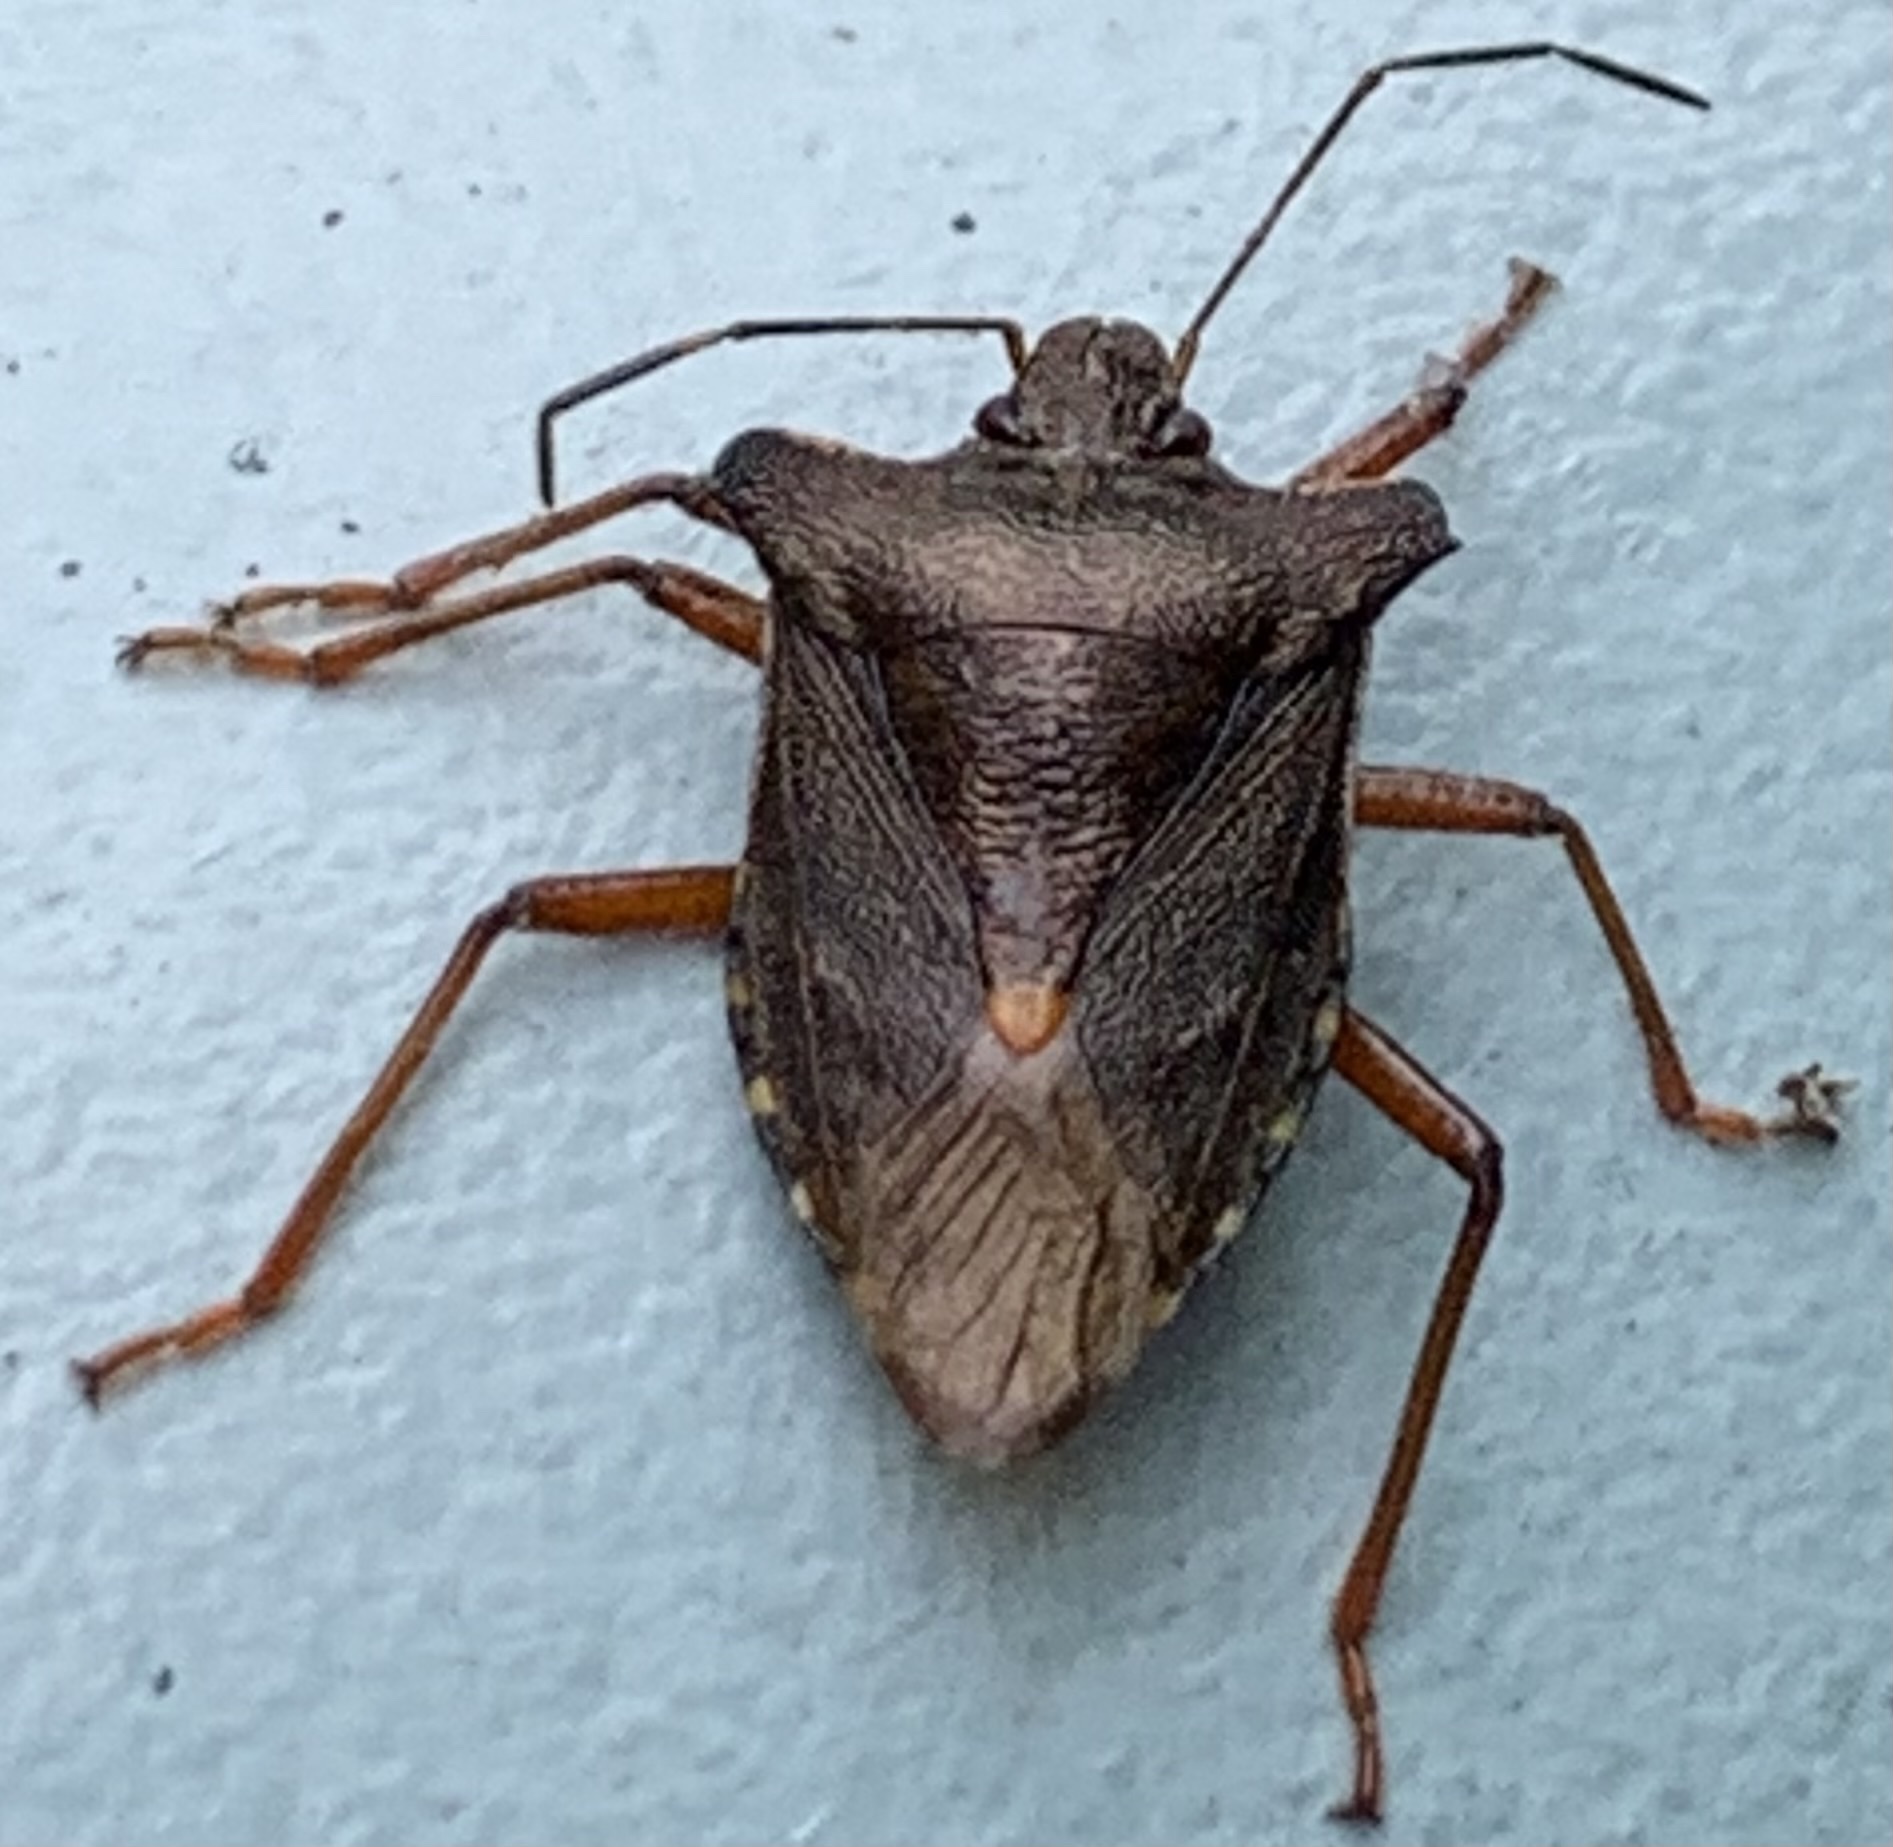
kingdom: Animalia
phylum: Arthropoda
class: Insecta
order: Hemiptera
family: Pentatomidae
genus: Pentatoma
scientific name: Pentatoma rufipes
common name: Forest bug
